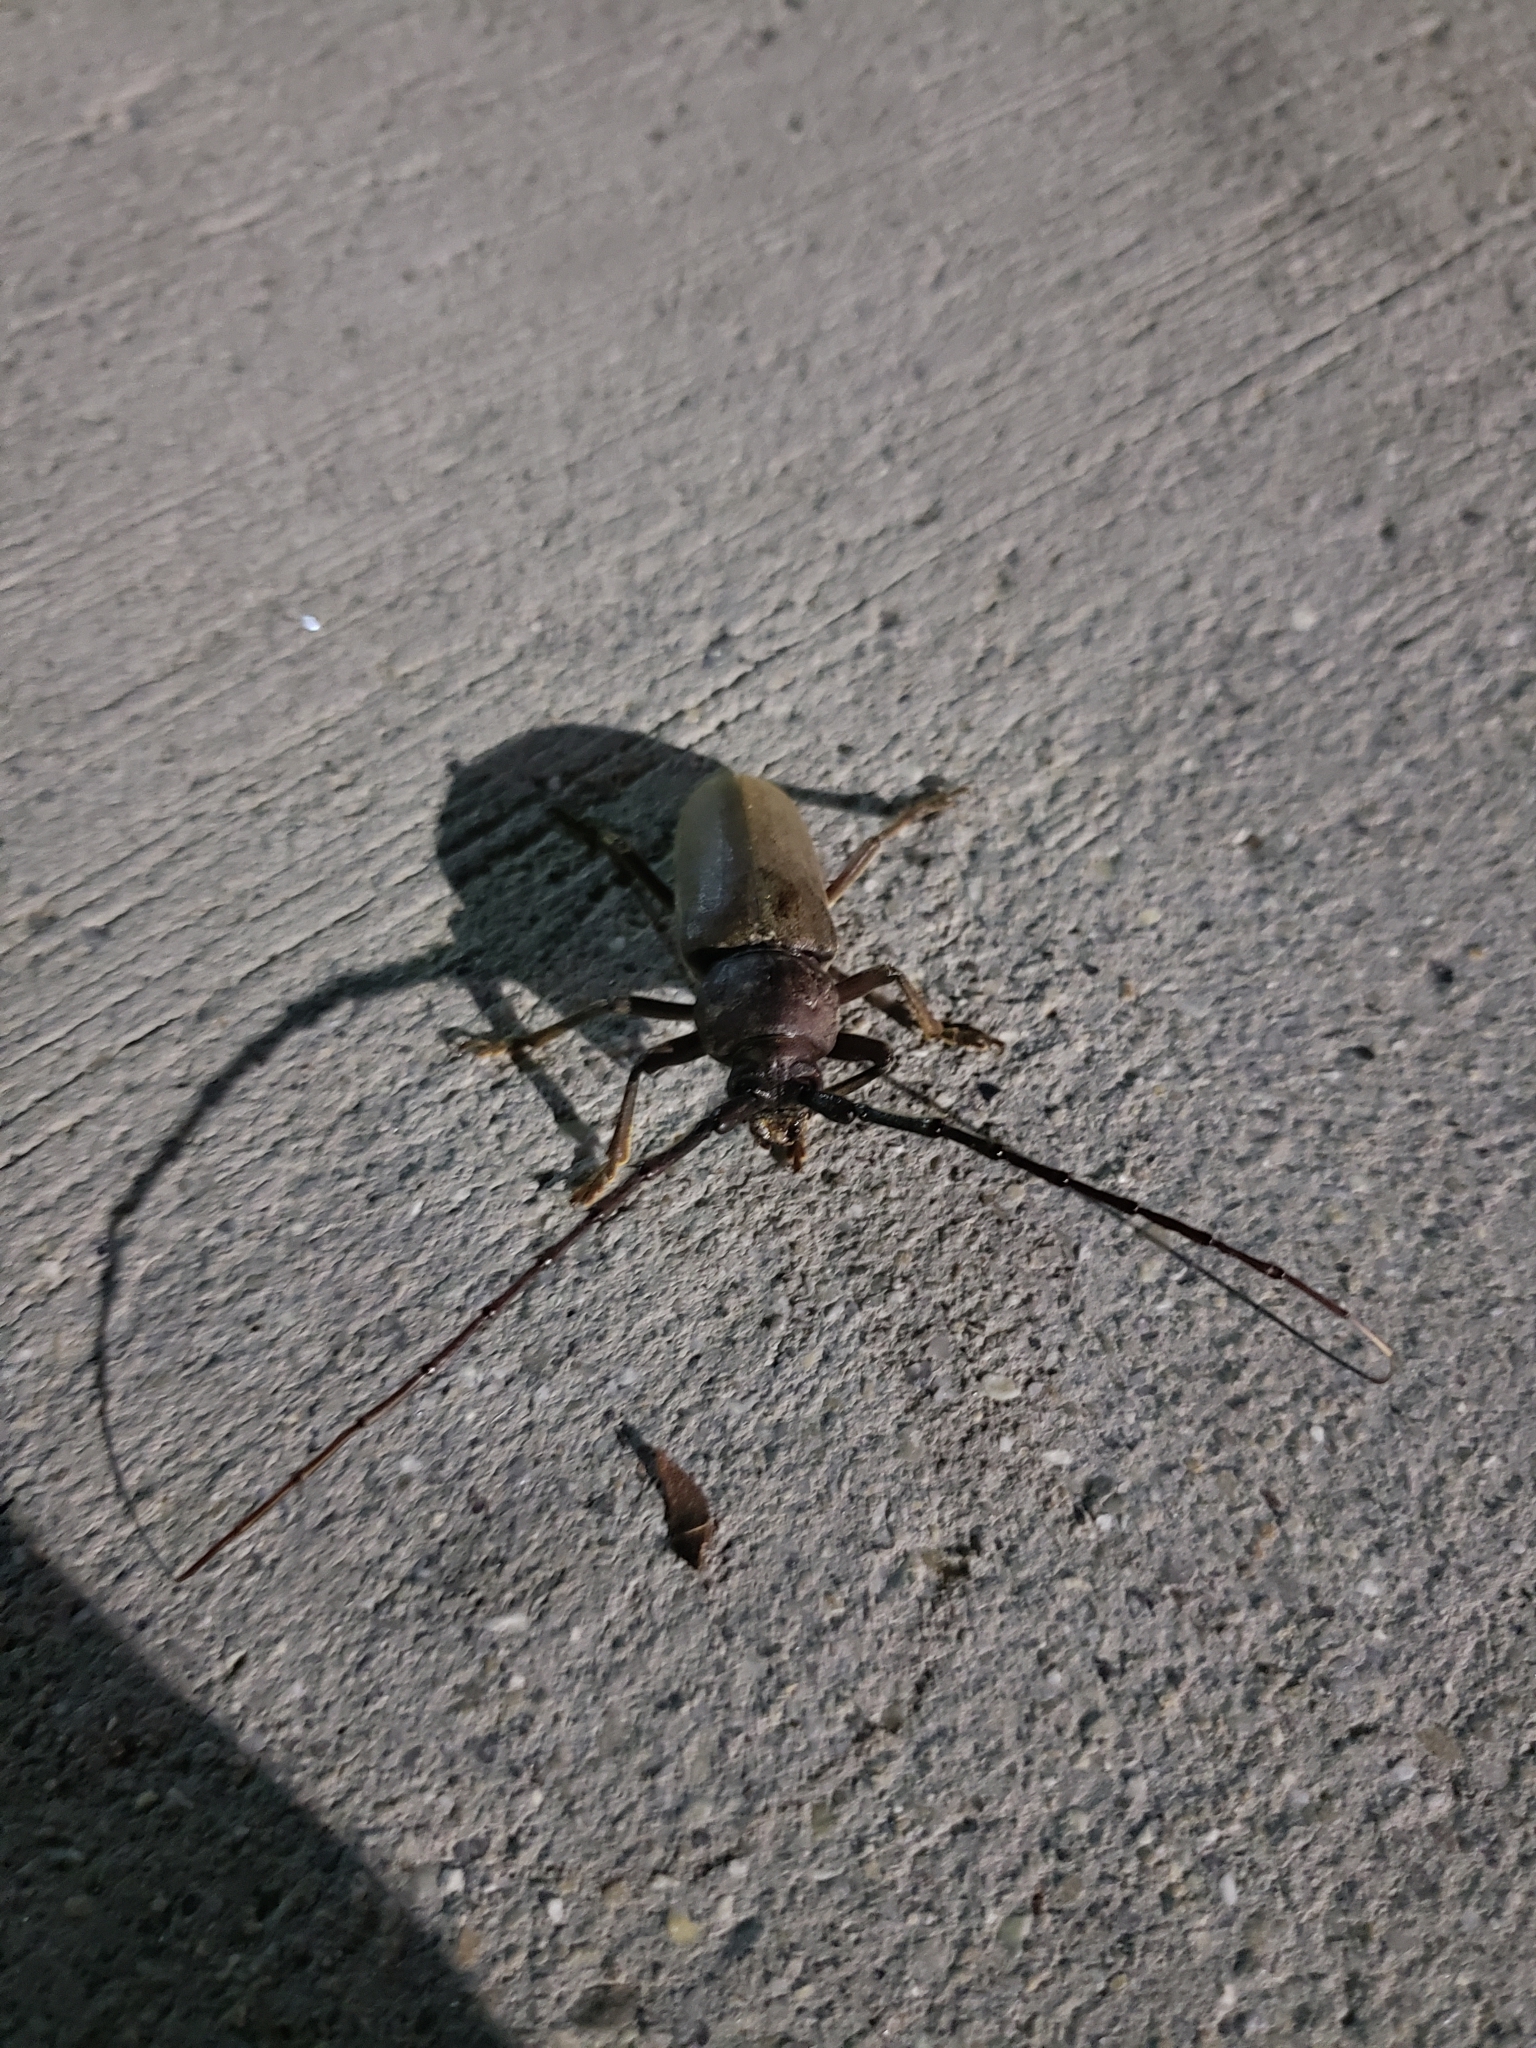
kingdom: Animalia
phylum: Arthropoda
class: Insecta
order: Coleoptera
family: Cerambycidae
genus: Enaphalodes
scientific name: Enaphalodes hispicornis
